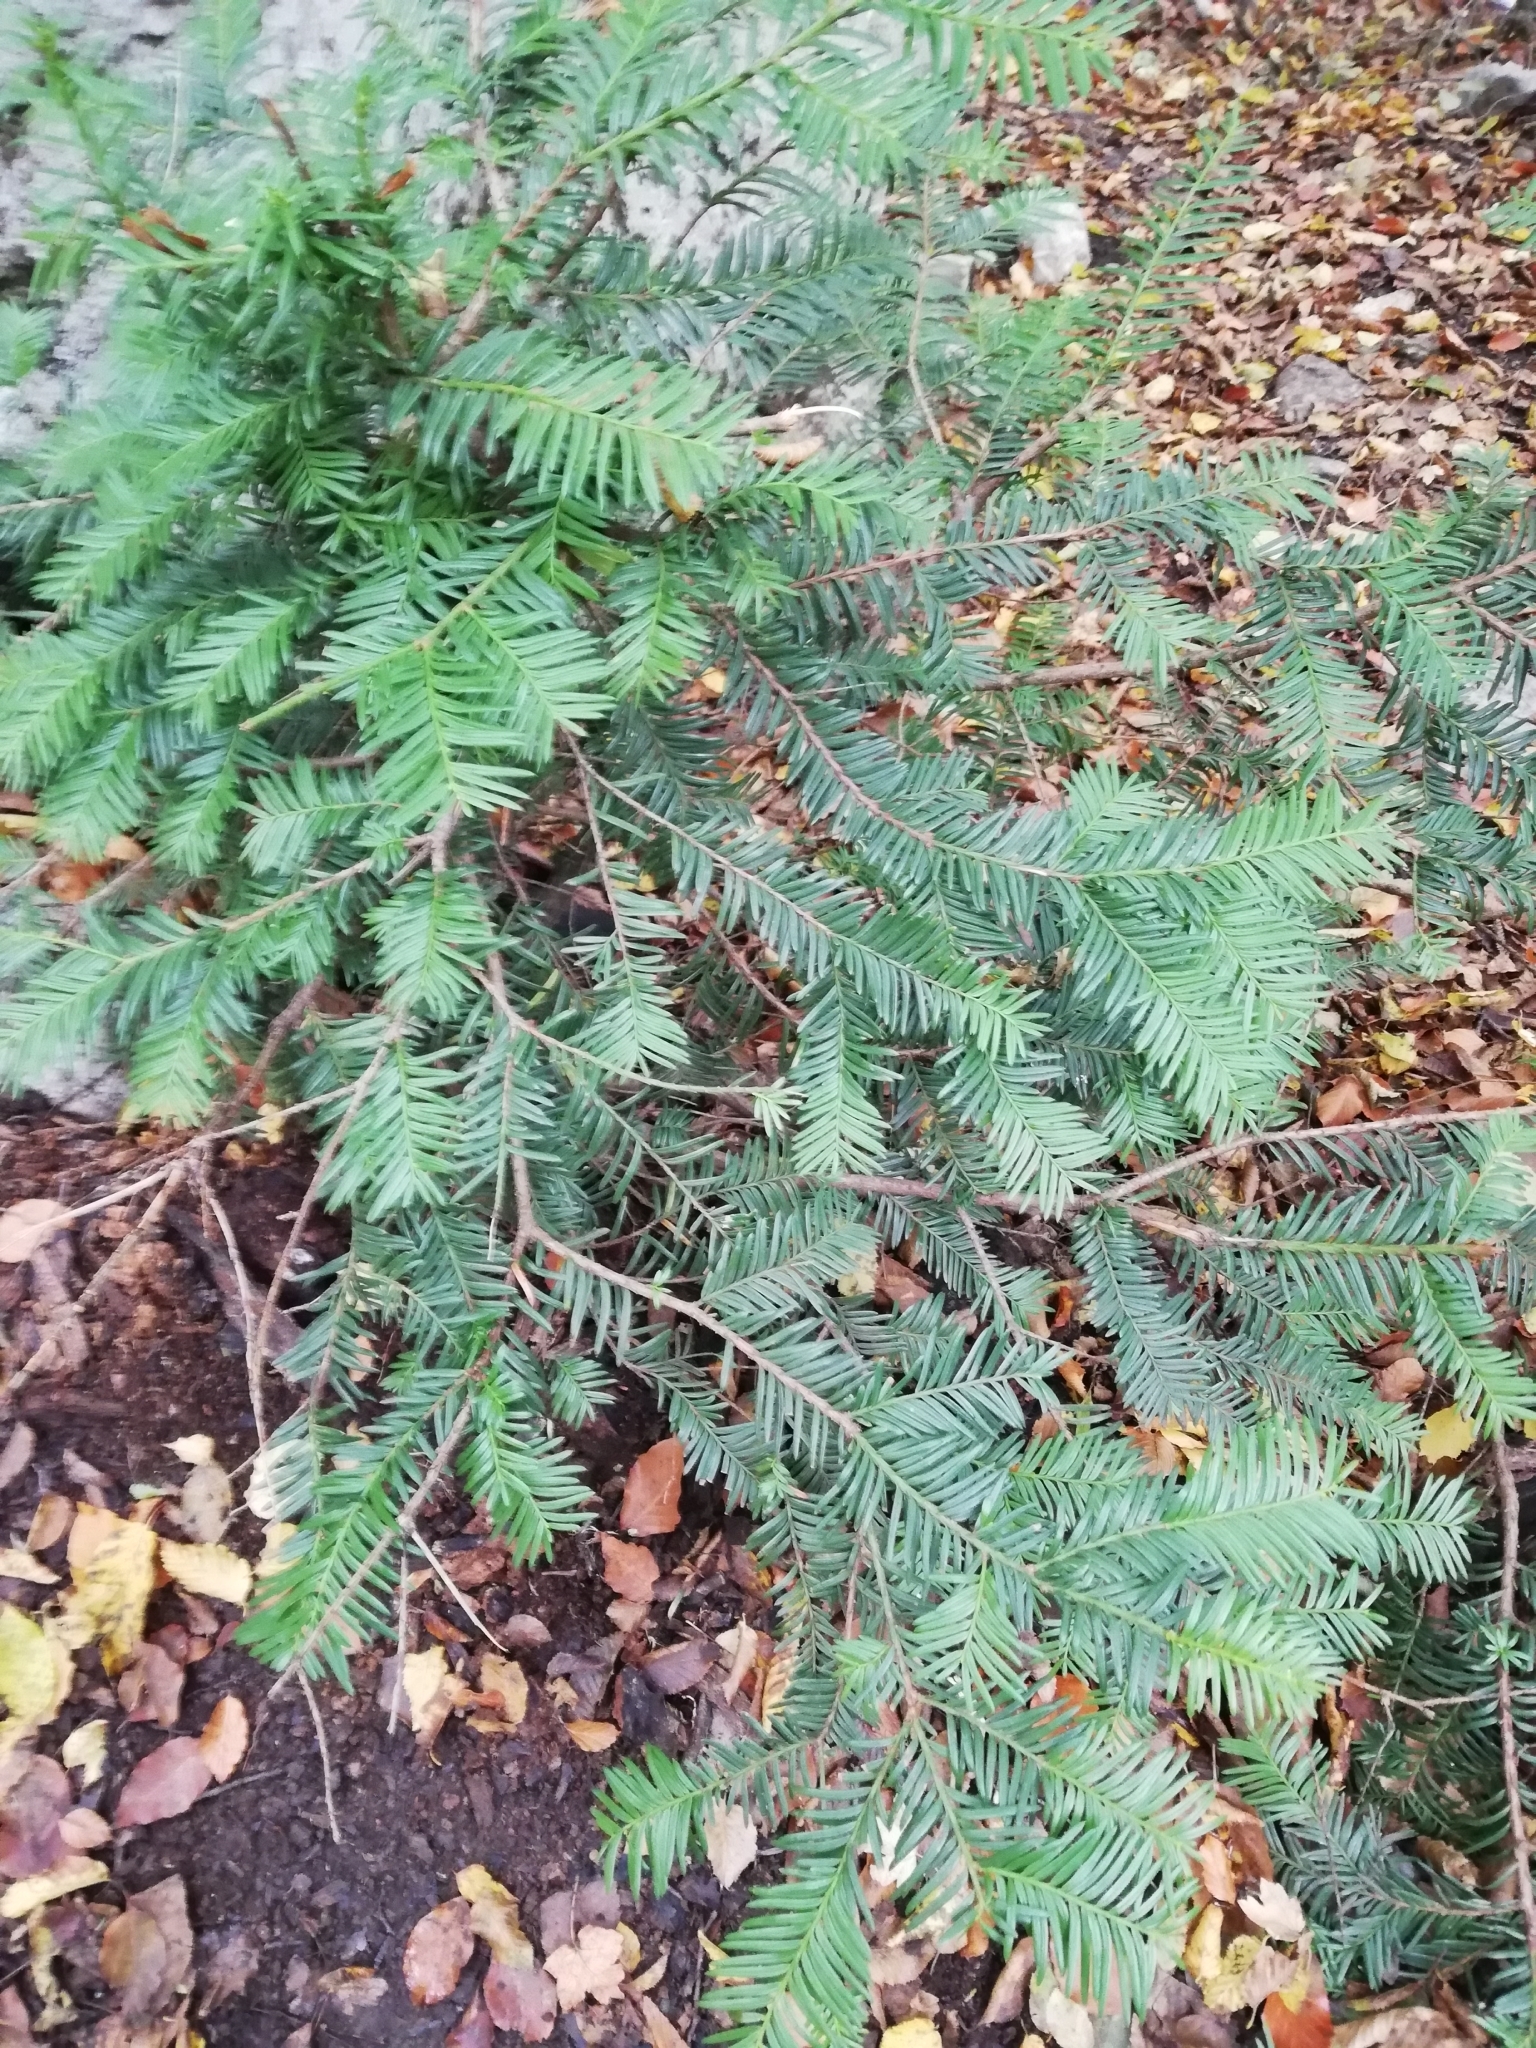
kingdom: Plantae
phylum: Tracheophyta
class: Pinopsida
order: Pinales
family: Taxaceae
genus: Taxus
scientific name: Taxus baccata
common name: Yew
